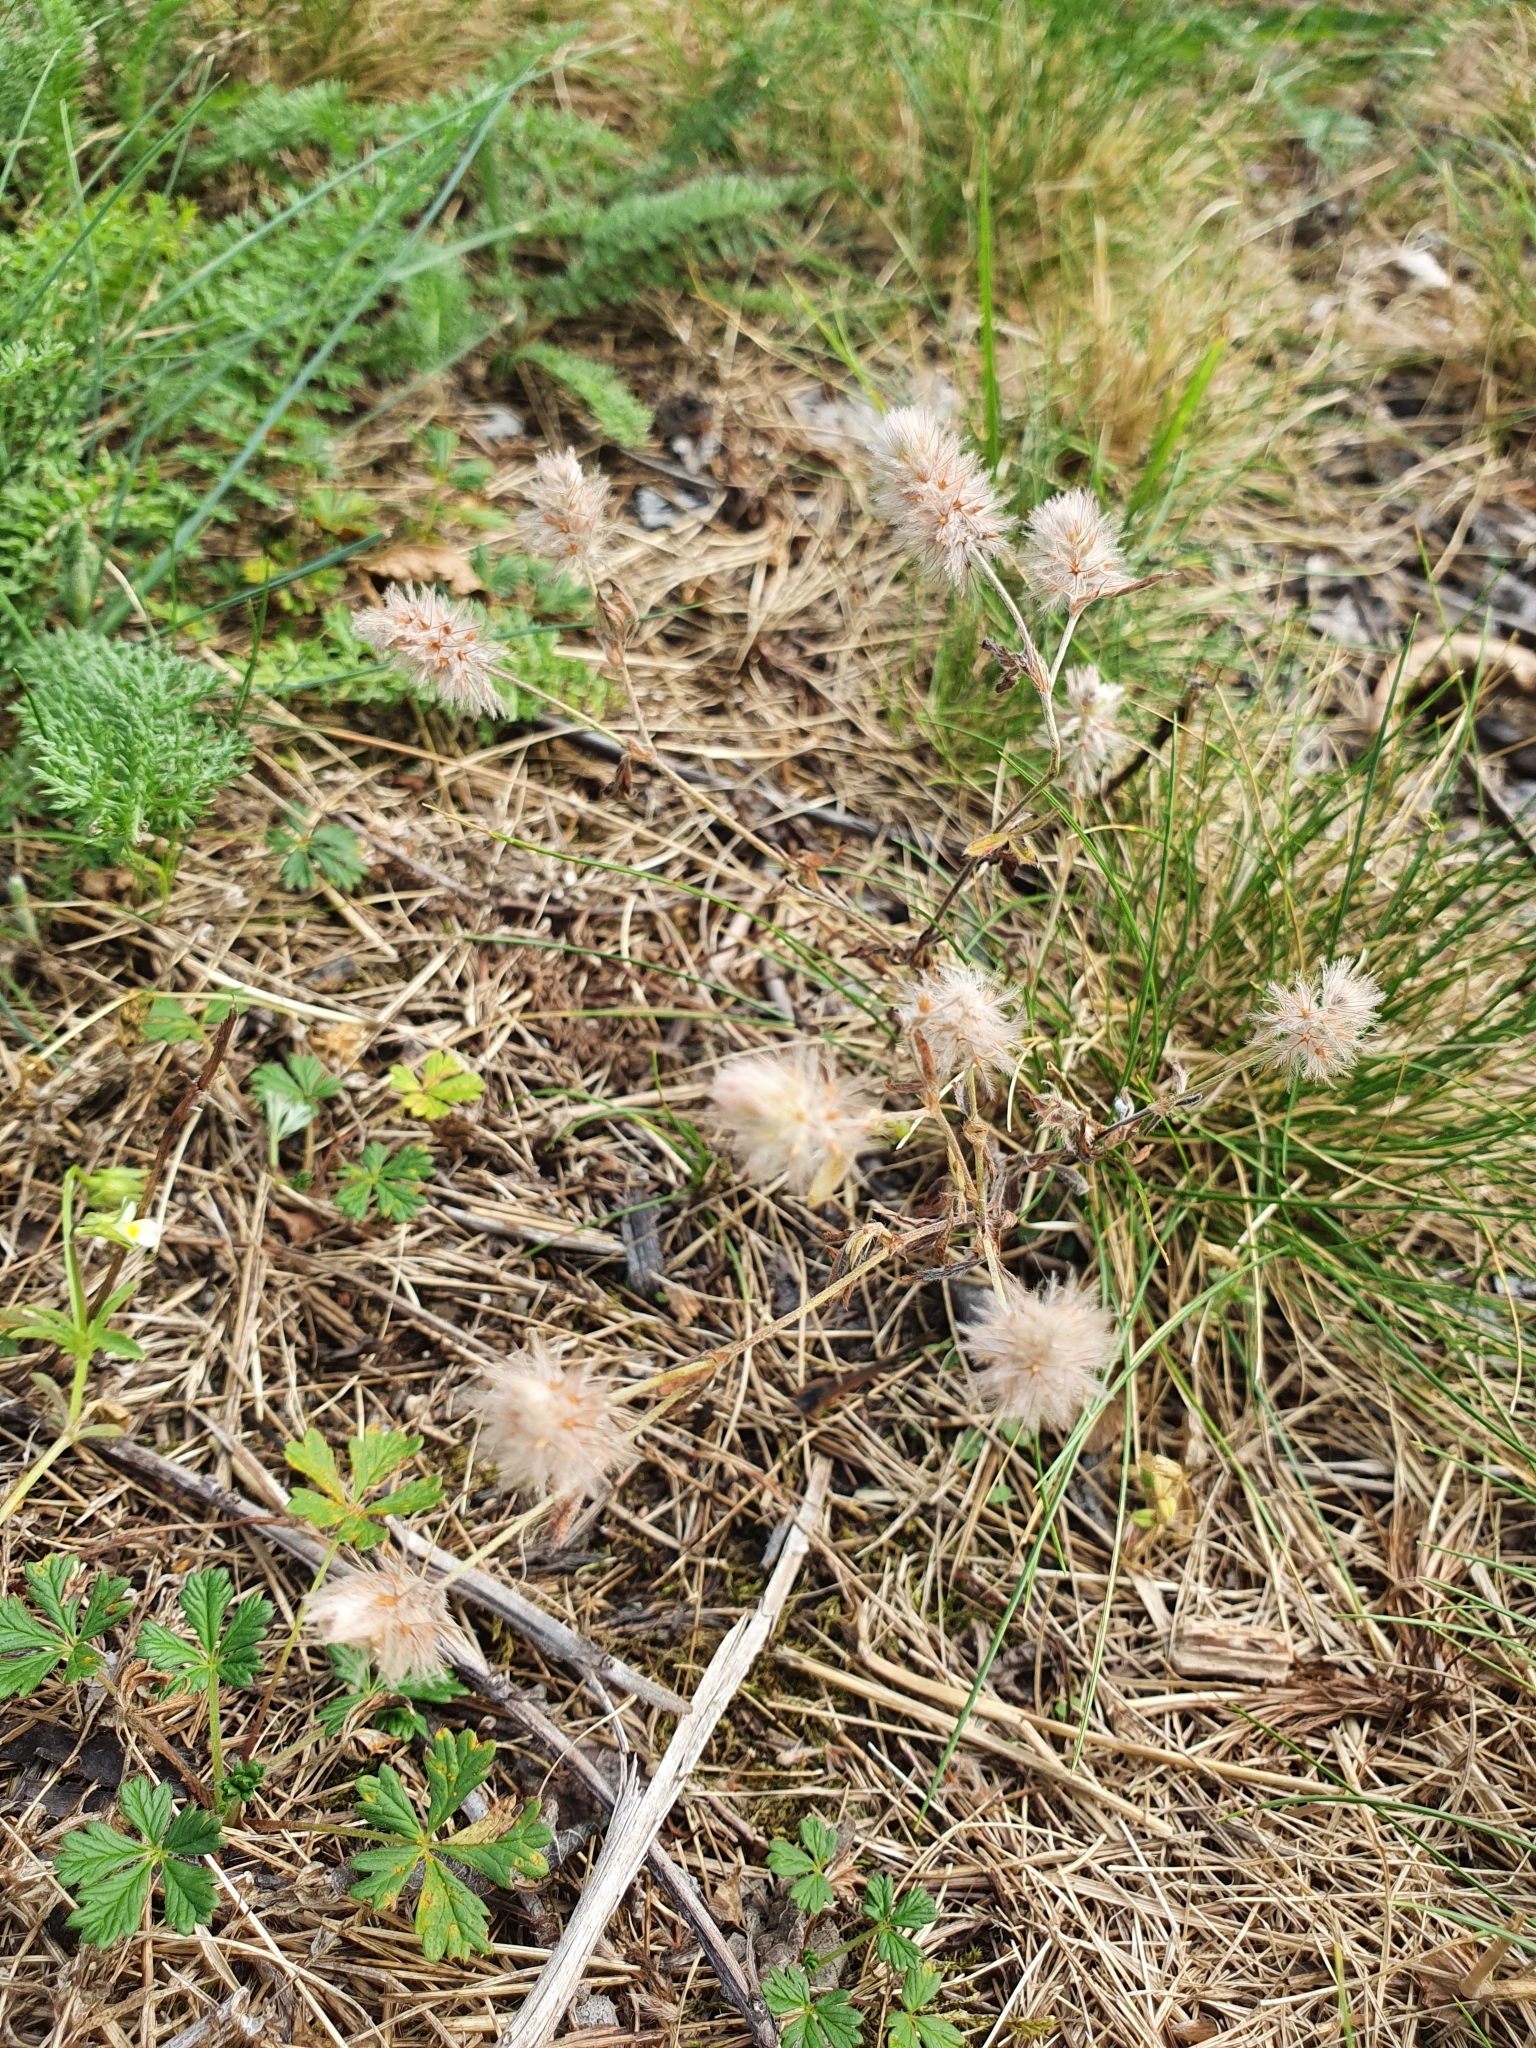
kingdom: Plantae
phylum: Tracheophyta
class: Magnoliopsida
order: Fabales
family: Fabaceae
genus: Trifolium
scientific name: Trifolium arvense
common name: Hare's-foot clover
